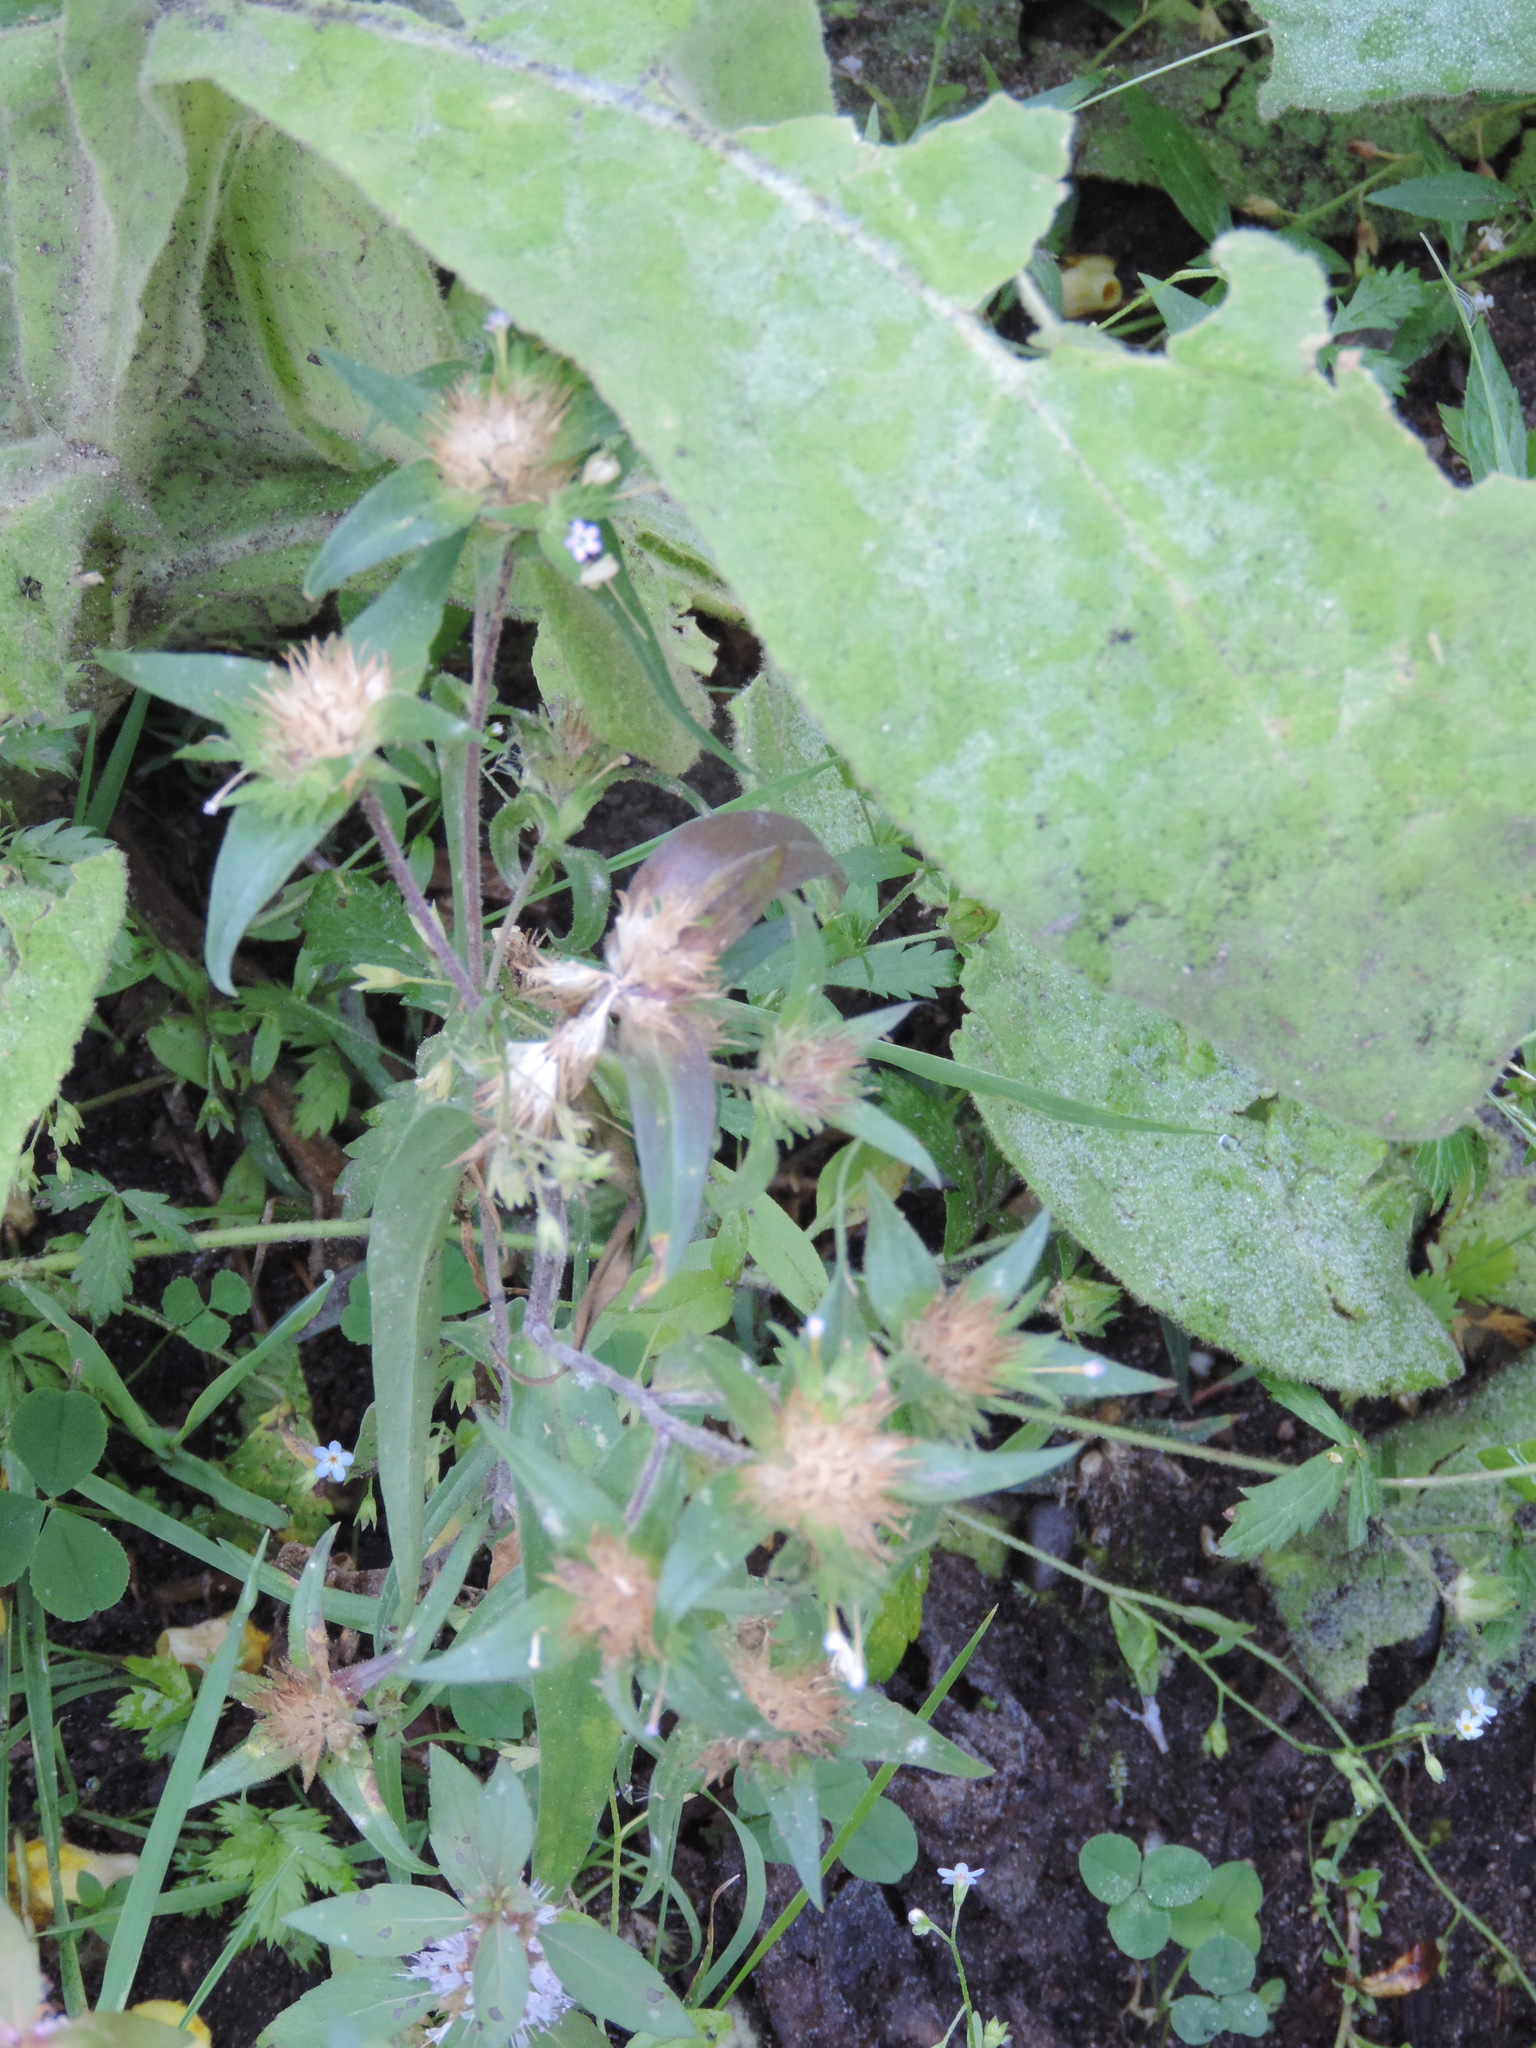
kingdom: Plantae
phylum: Tracheophyta
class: Magnoliopsida
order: Ericales
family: Polemoniaceae
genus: Collomia
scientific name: Collomia linearis
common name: Tiny trumpet
